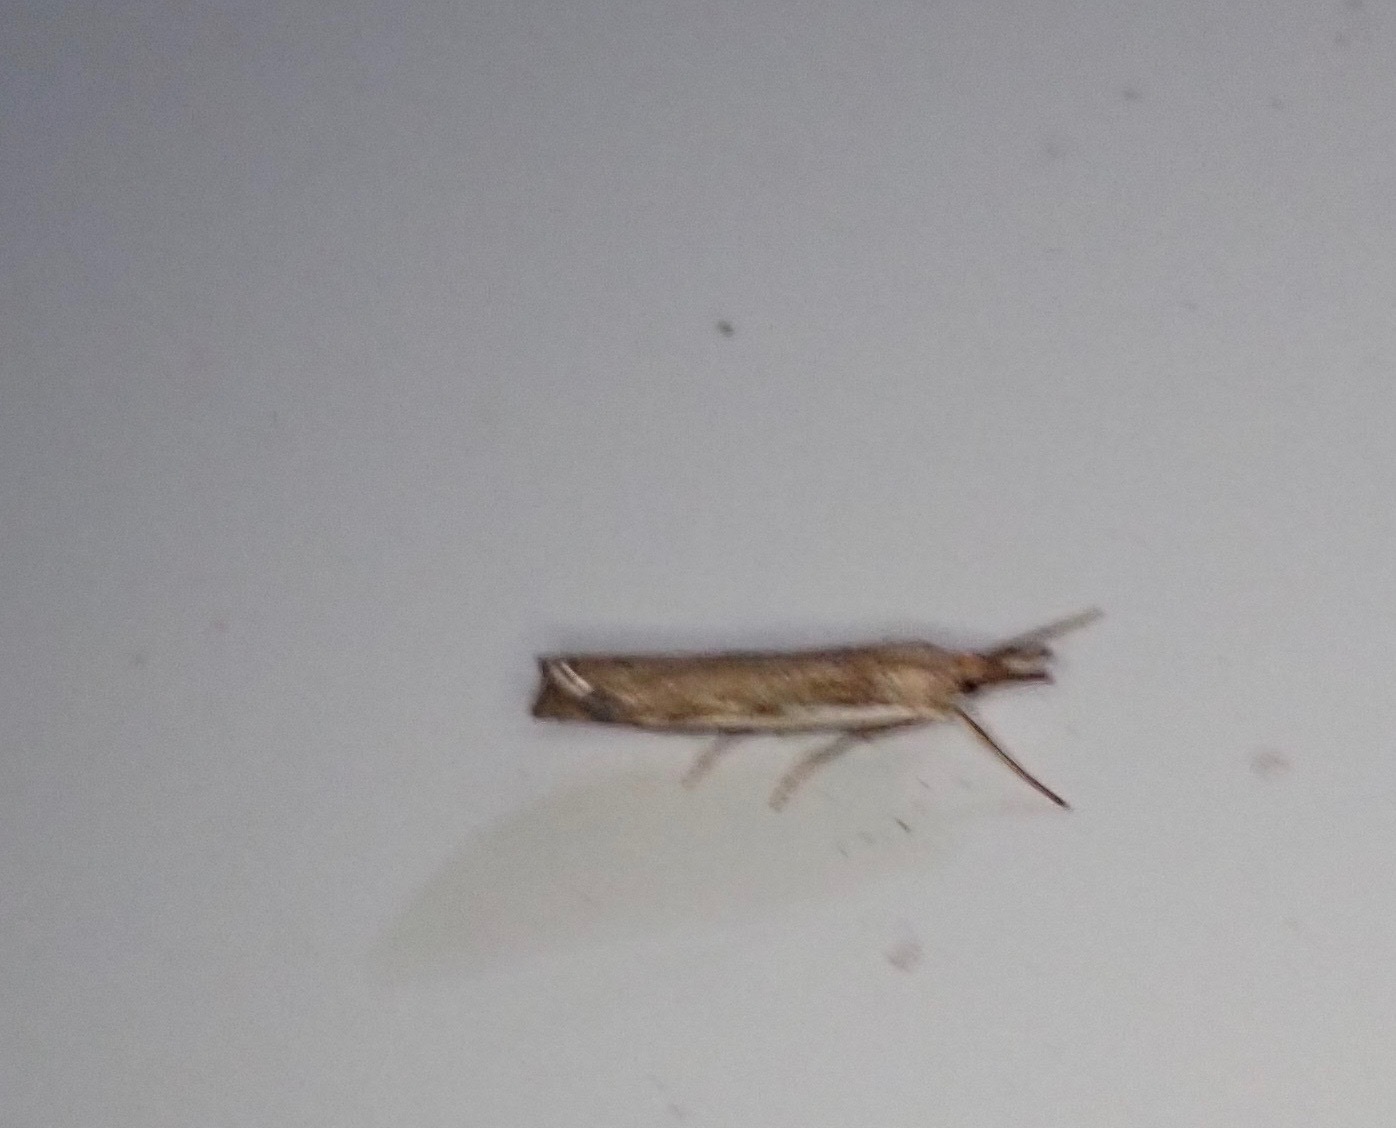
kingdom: Animalia
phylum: Arthropoda
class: Insecta
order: Lepidoptera
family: Crambidae
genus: Orocrambus
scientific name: Orocrambus flexuosellus
